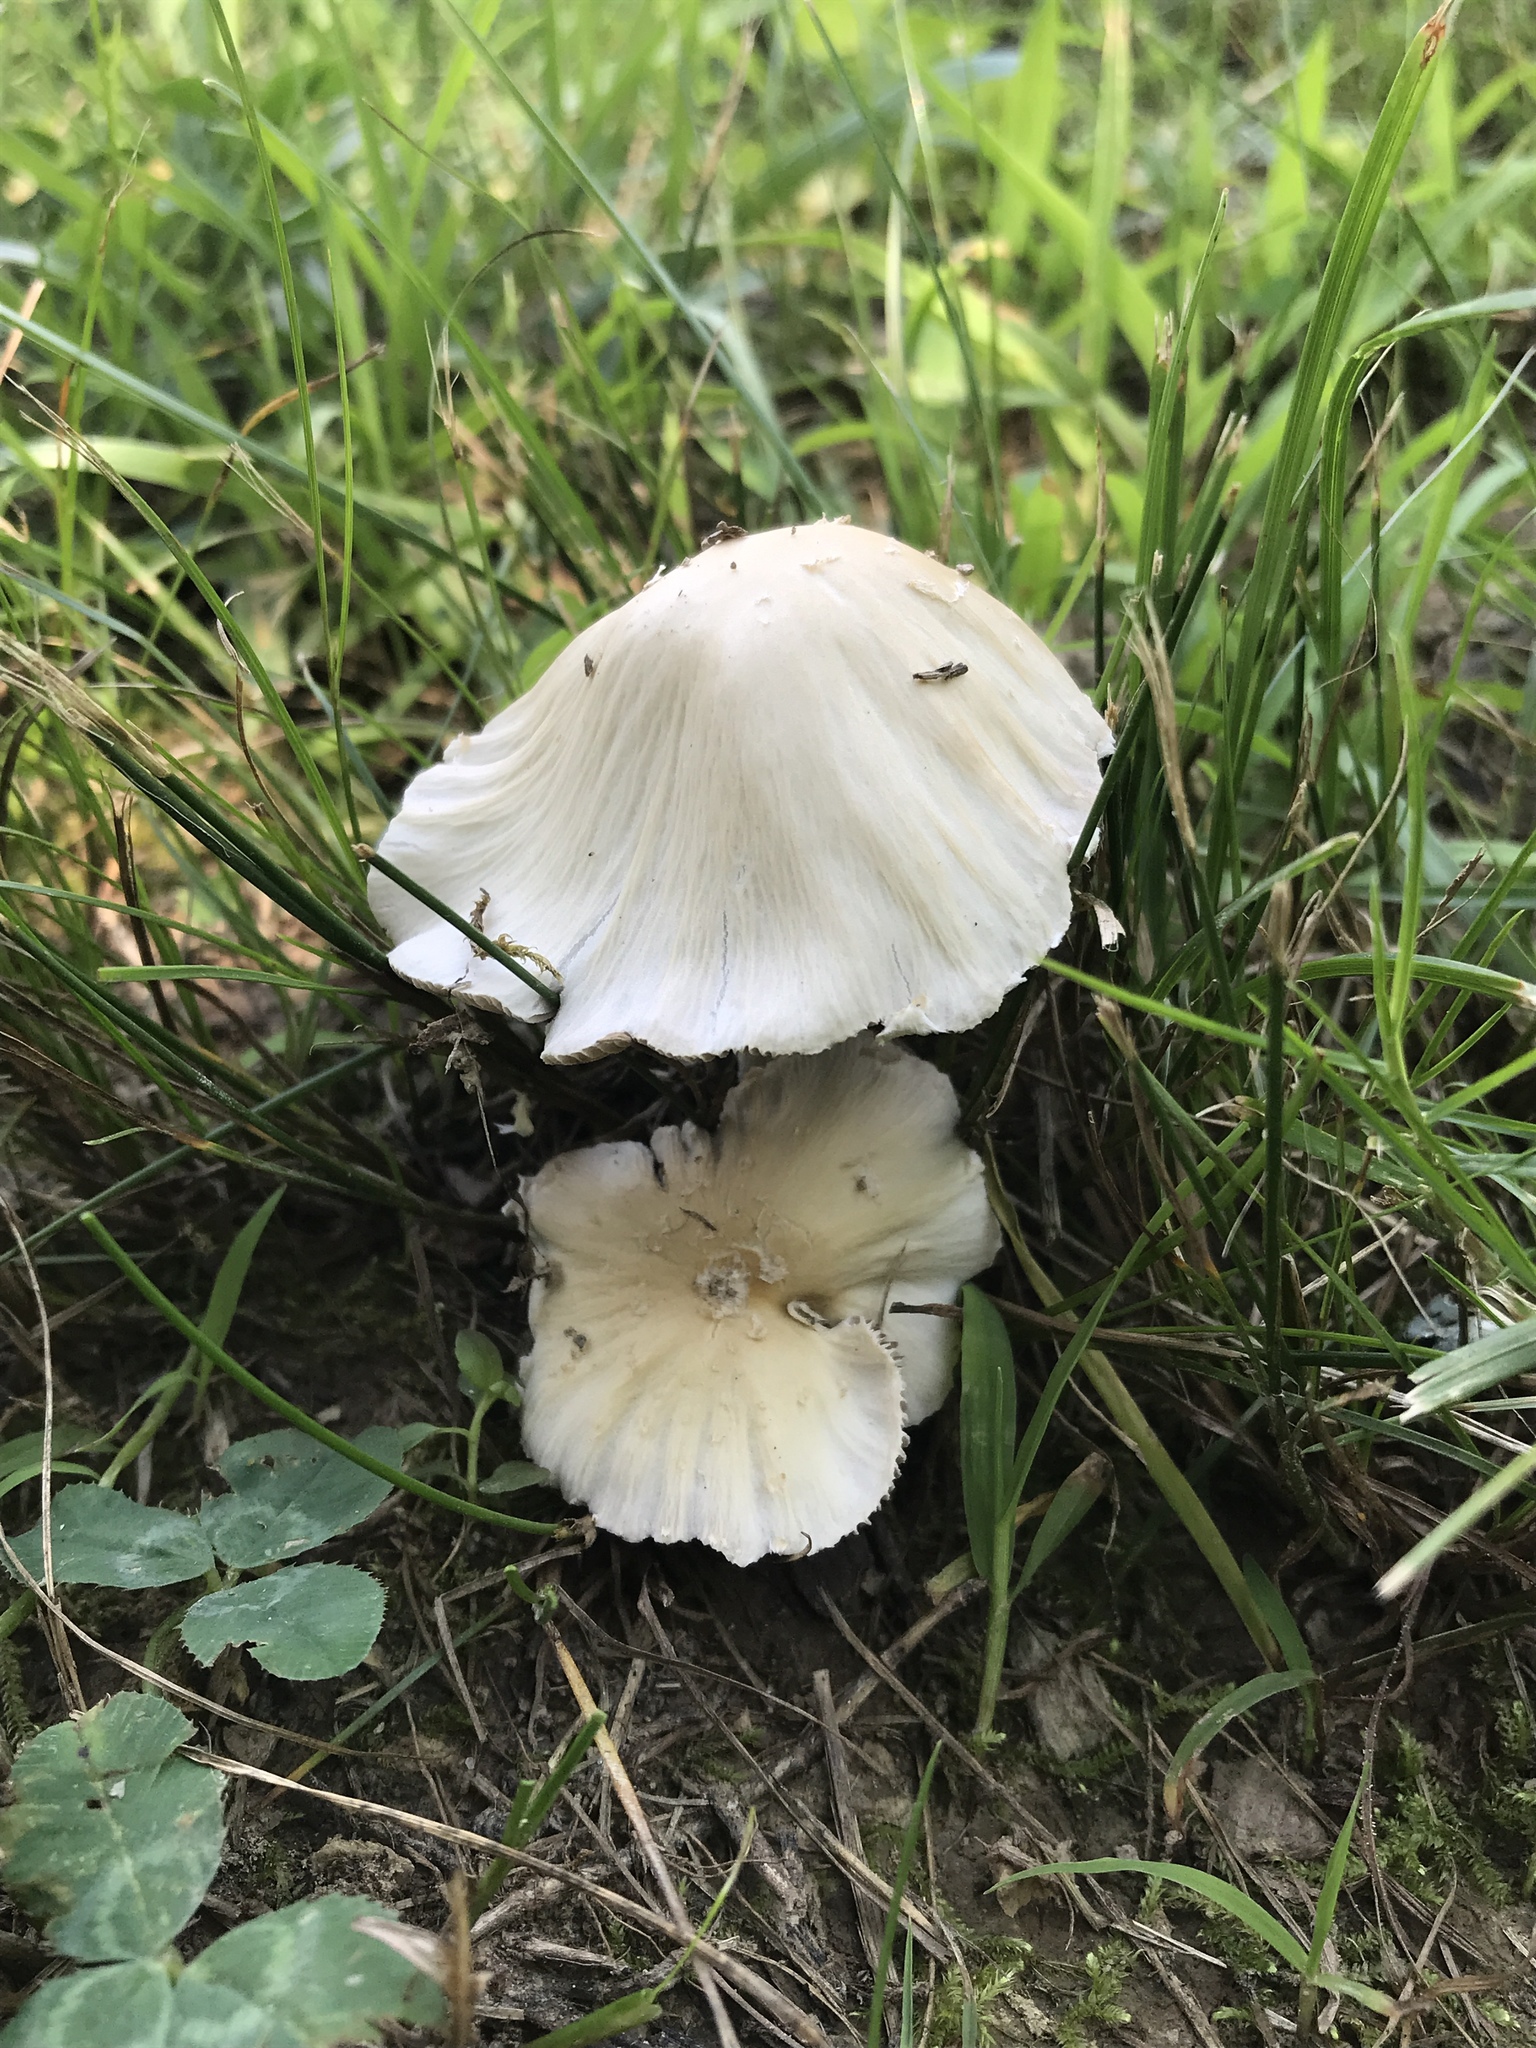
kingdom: Fungi
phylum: Basidiomycota
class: Agaricomycetes
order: Agaricales
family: Psathyrellaceae
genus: Candolleomyces
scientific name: Candolleomyces candolleanus
